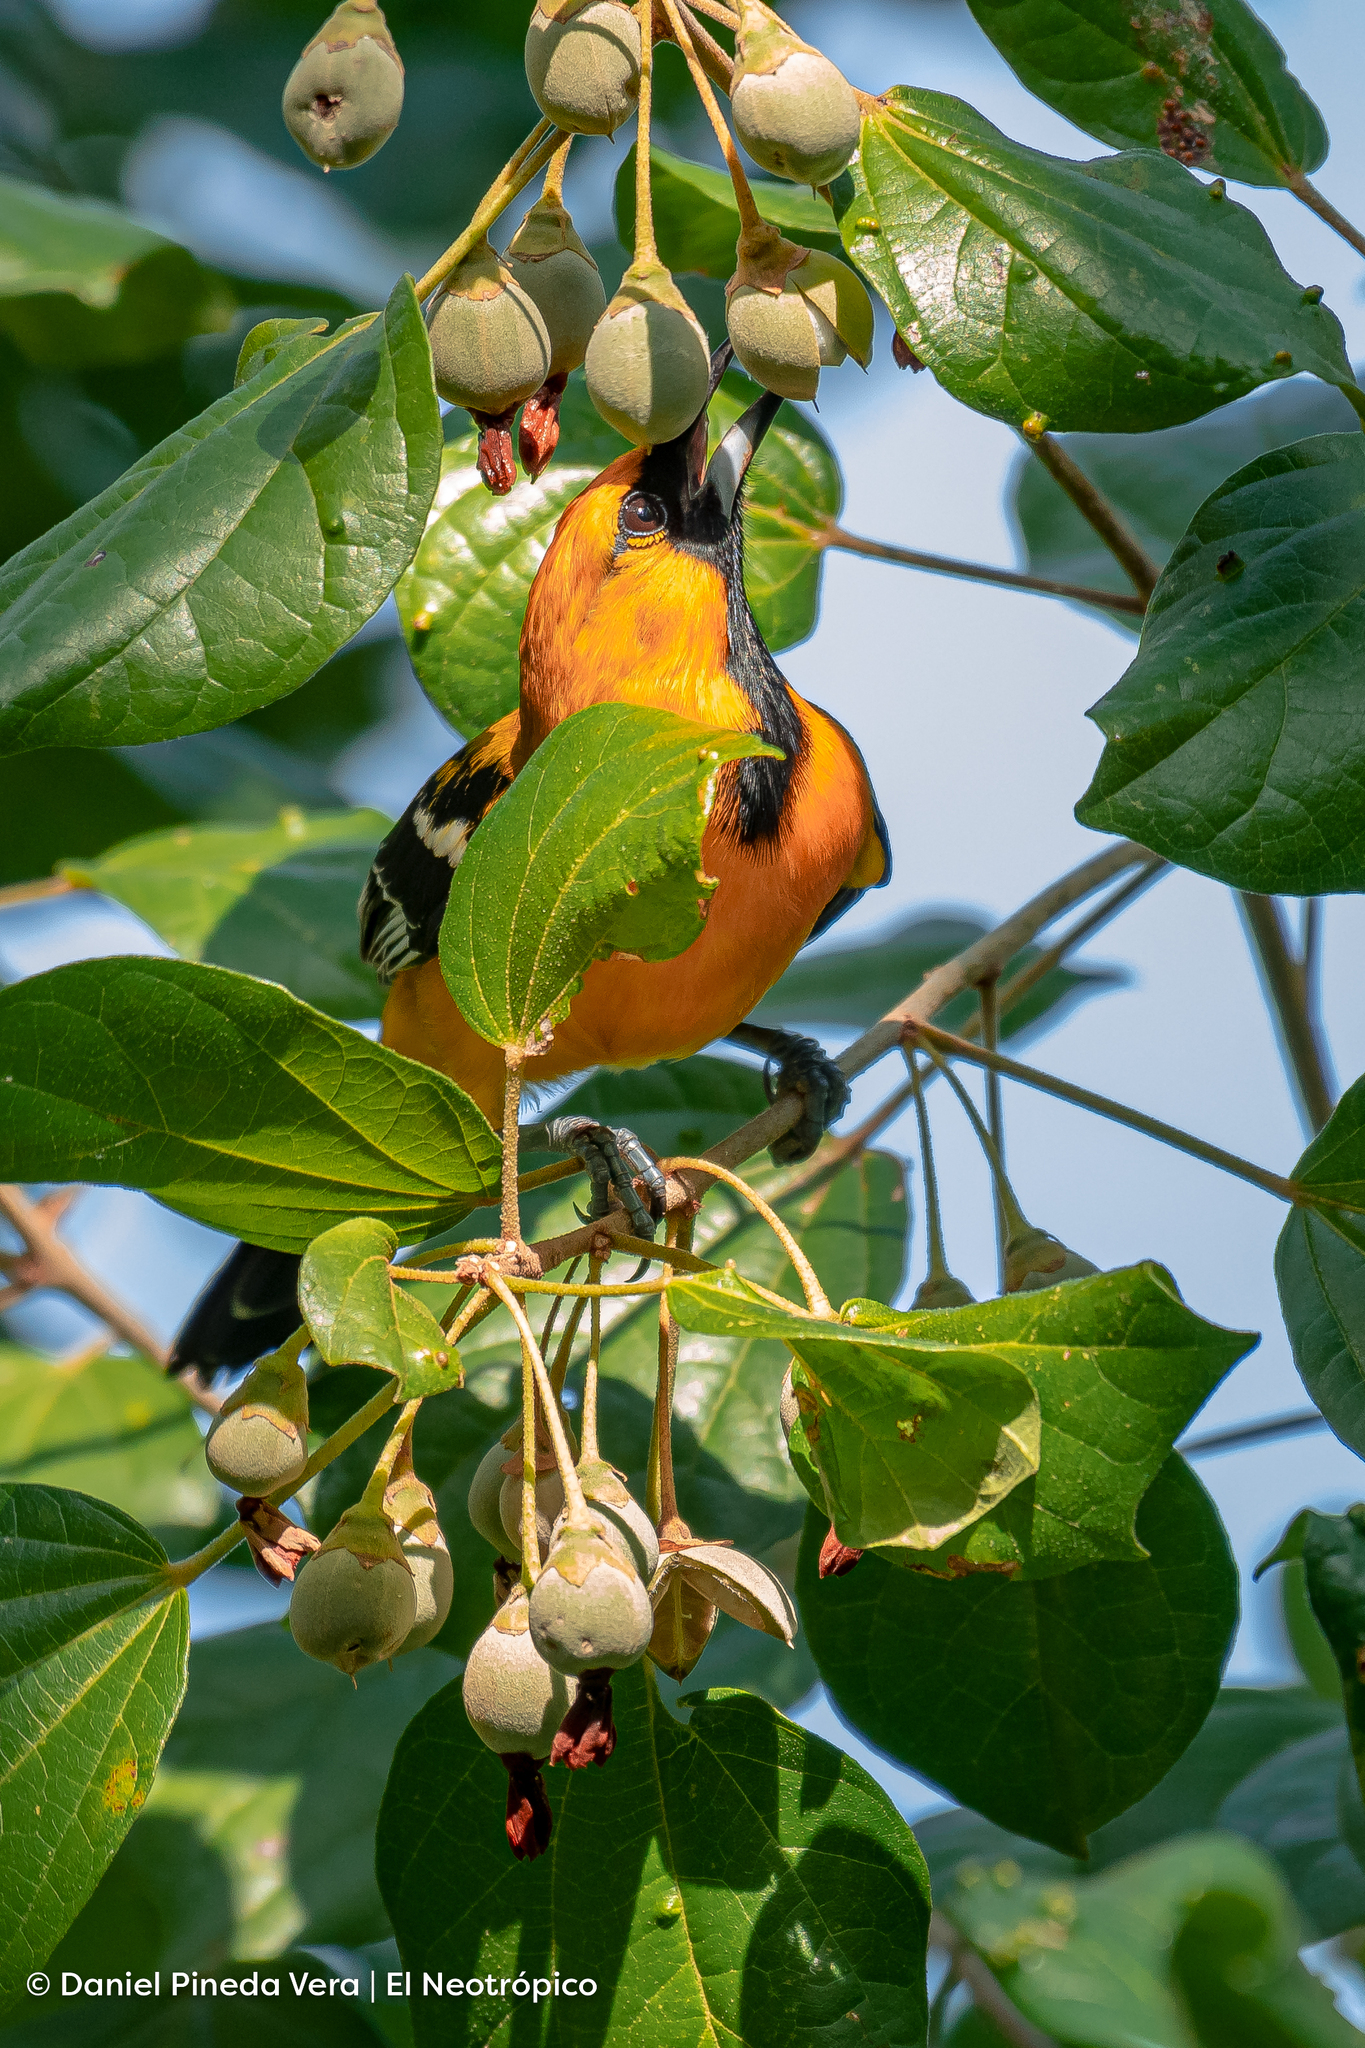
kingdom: Animalia
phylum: Chordata
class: Aves
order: Passeriformes
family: Icteridae
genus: Icterus
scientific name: Icterus auratus
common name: Orange oriole
